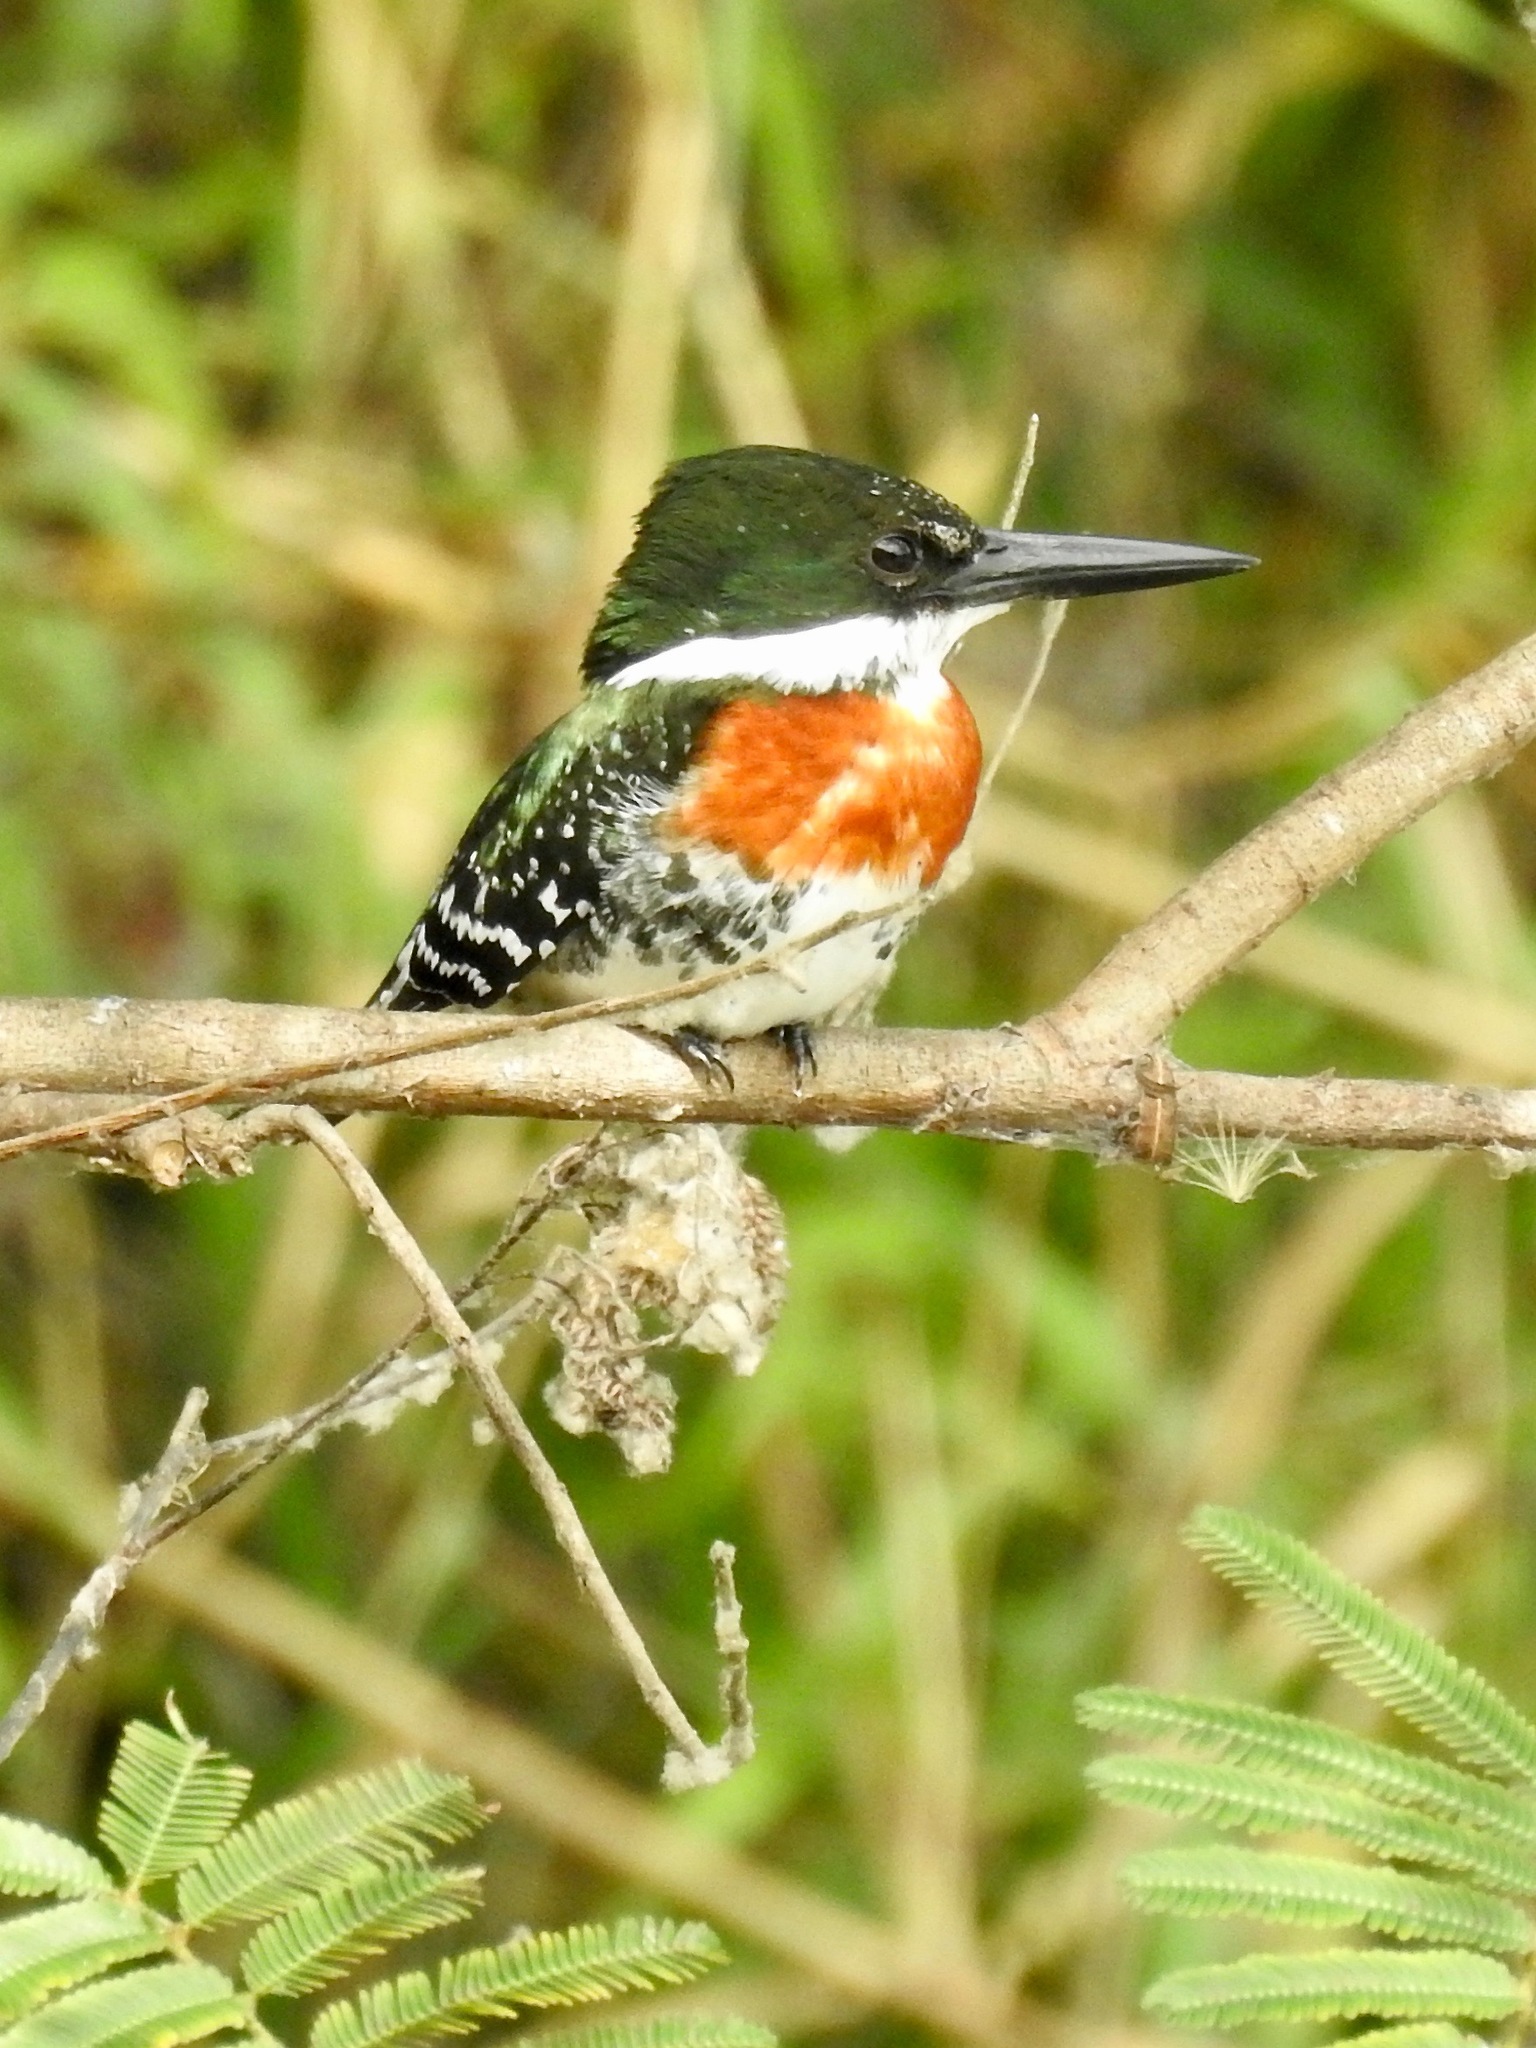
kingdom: Animalia
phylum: Chordata
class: Aves
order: Coraciiformes
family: Alcedinidae
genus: Chloroceryle
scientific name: Chloroceryle americana
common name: Green kingfisher
